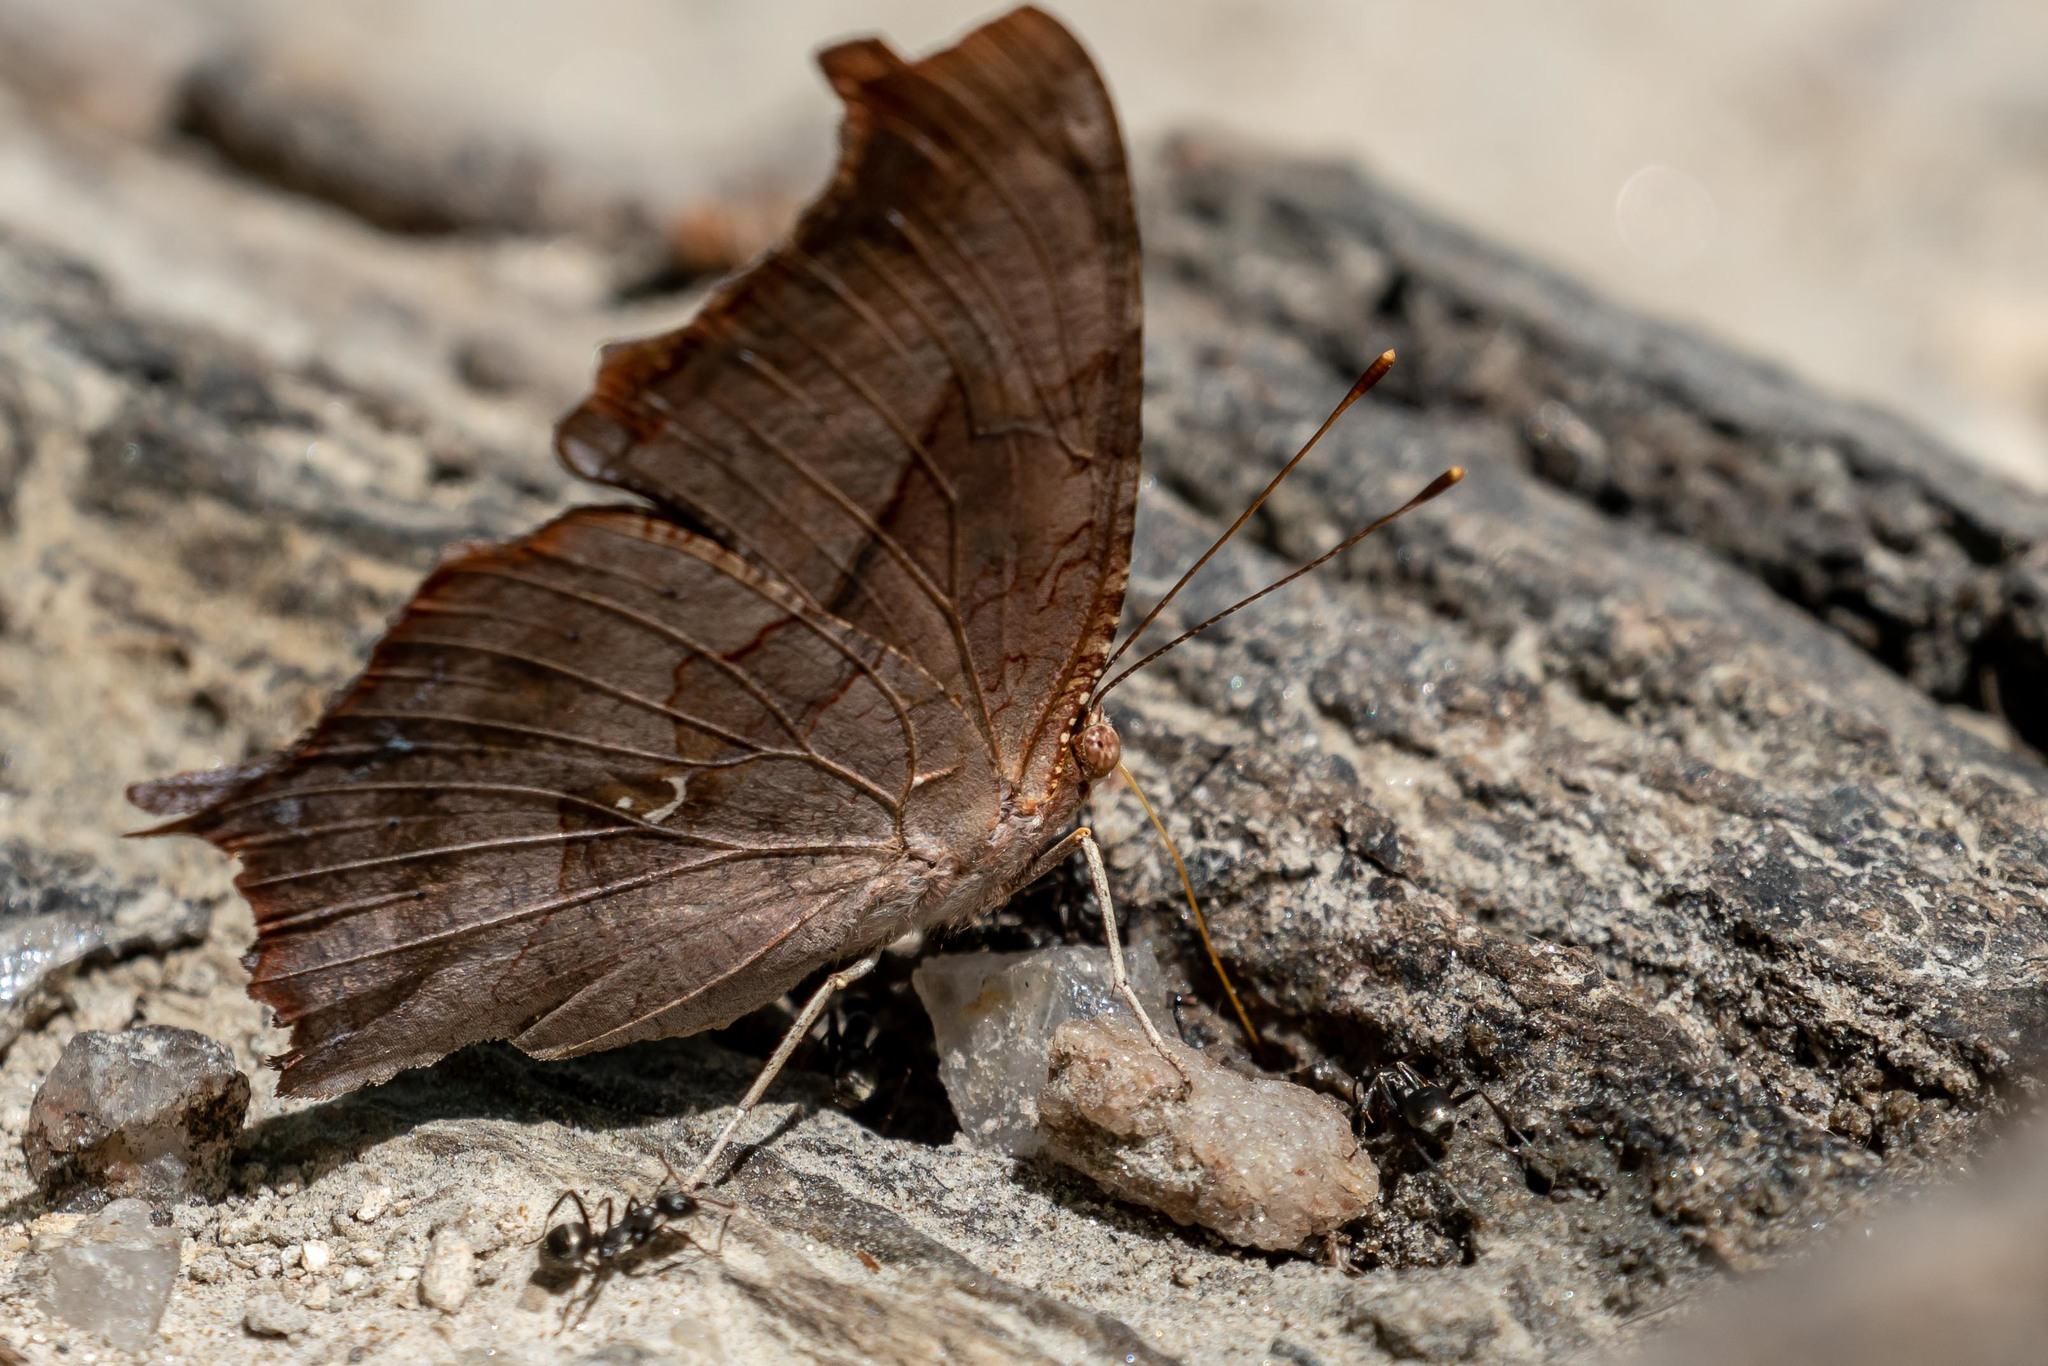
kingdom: Animalia
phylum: Arthropoda
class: Insecta
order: Lepidoptera
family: Nymphalidae
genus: Polygonia
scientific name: Polygonia interrogationis
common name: Question mark
